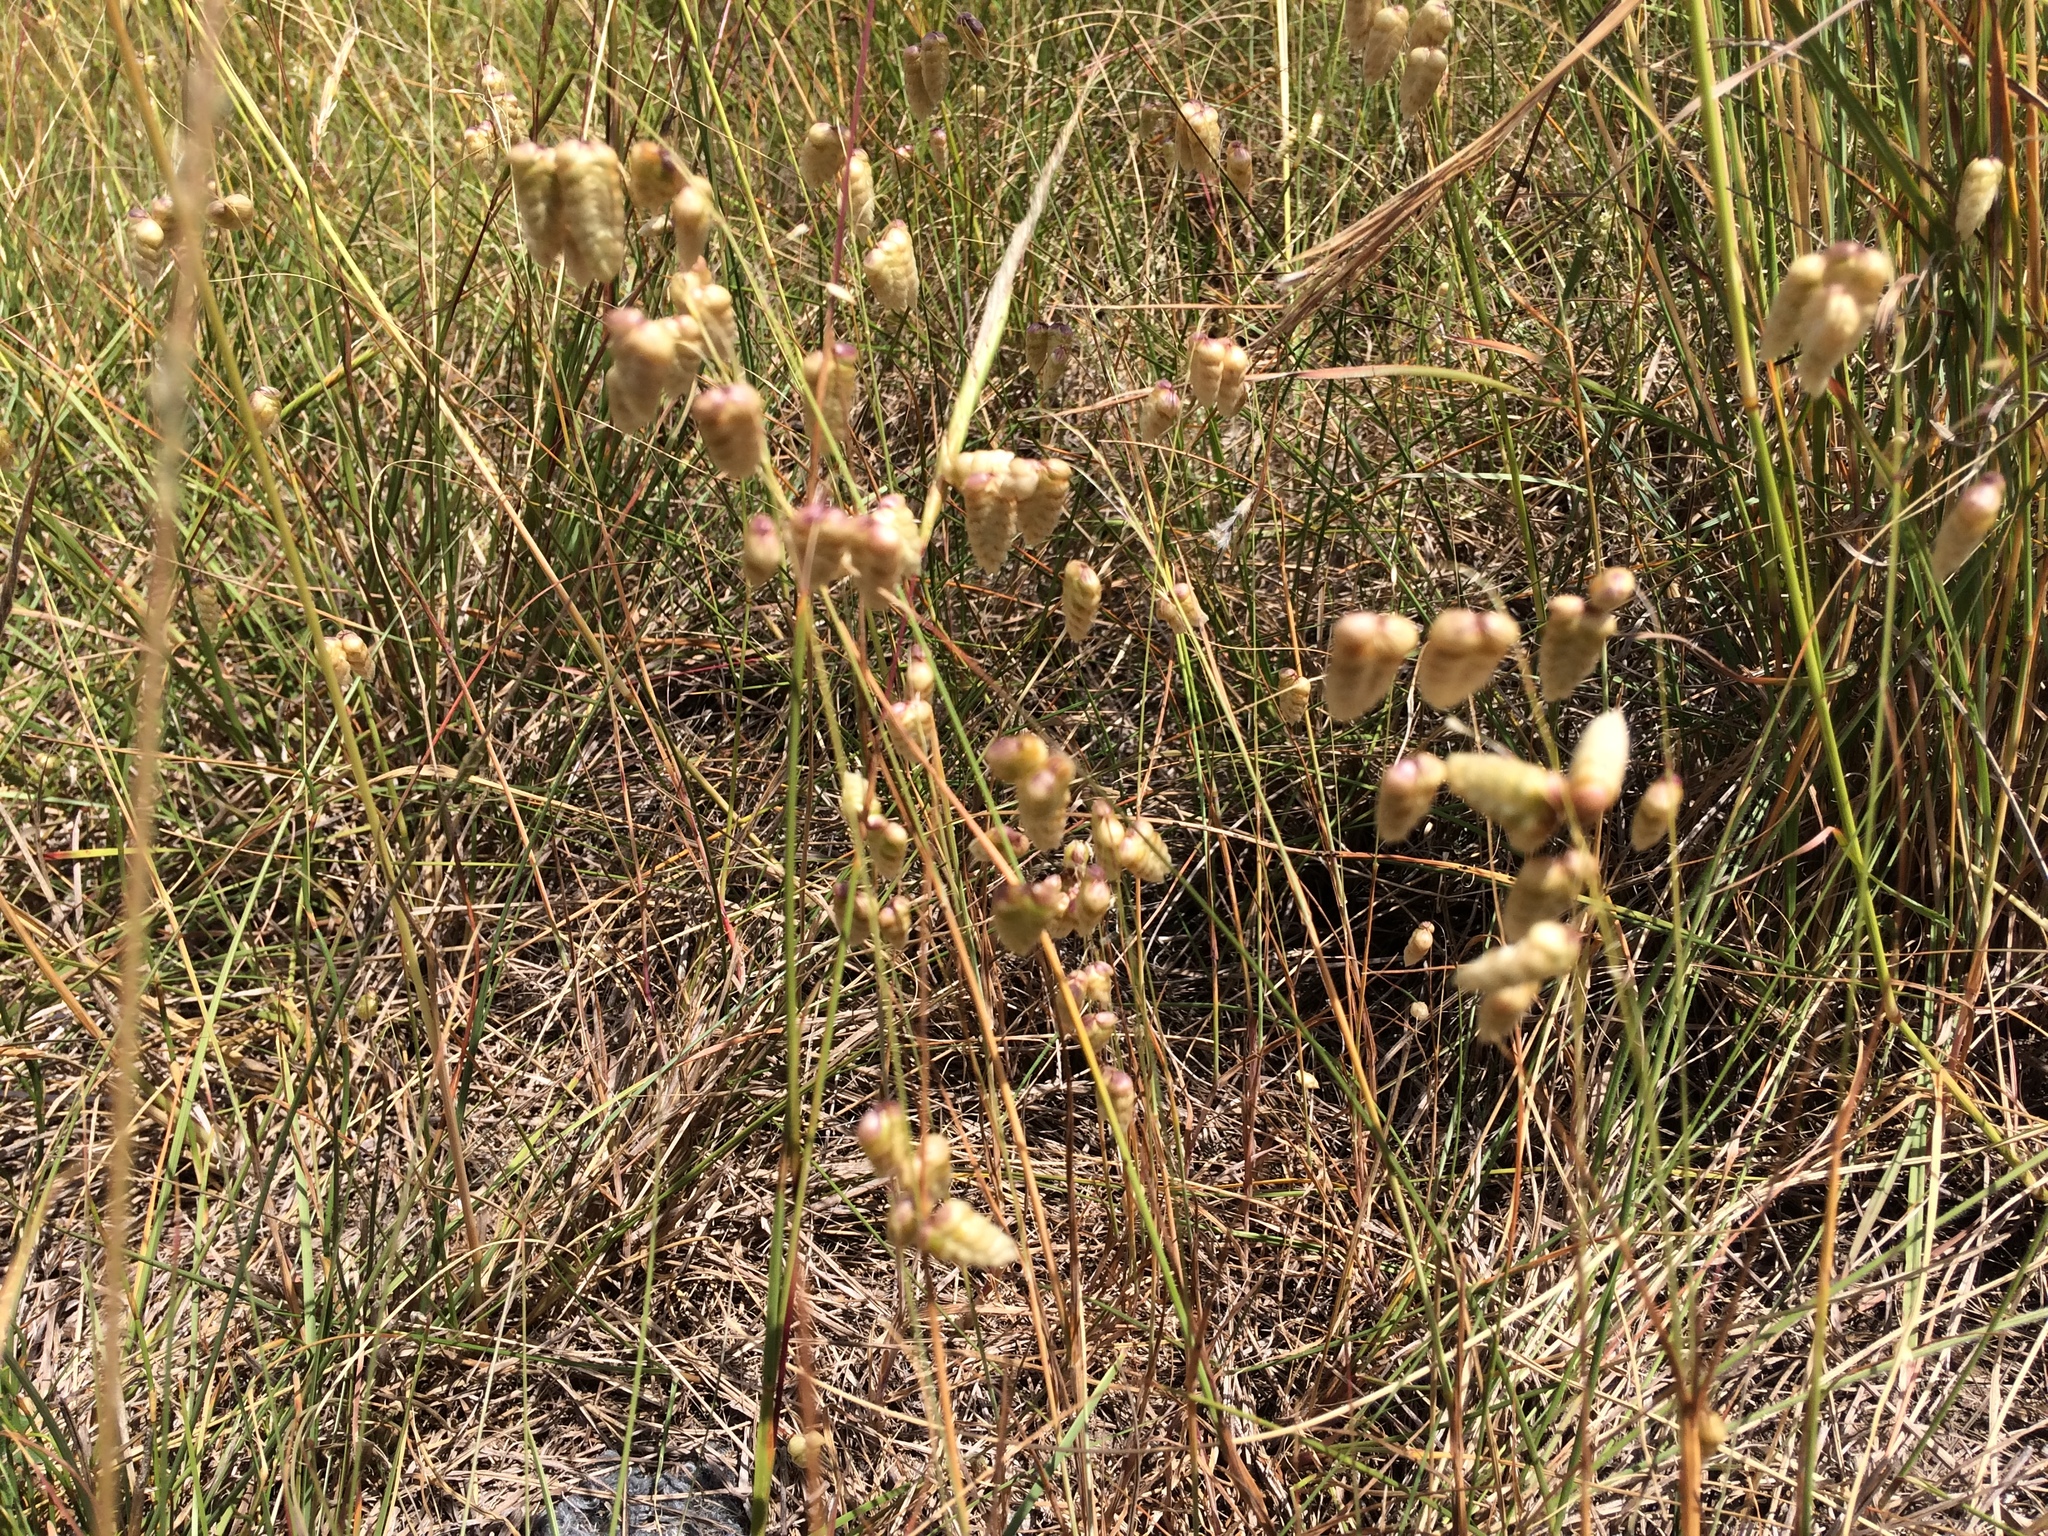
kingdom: Plantae
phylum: Tracheophyta
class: Liliopsida
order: Poales
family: Poaceae
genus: Briza
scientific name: Briza maxima
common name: Big quakinggrass
